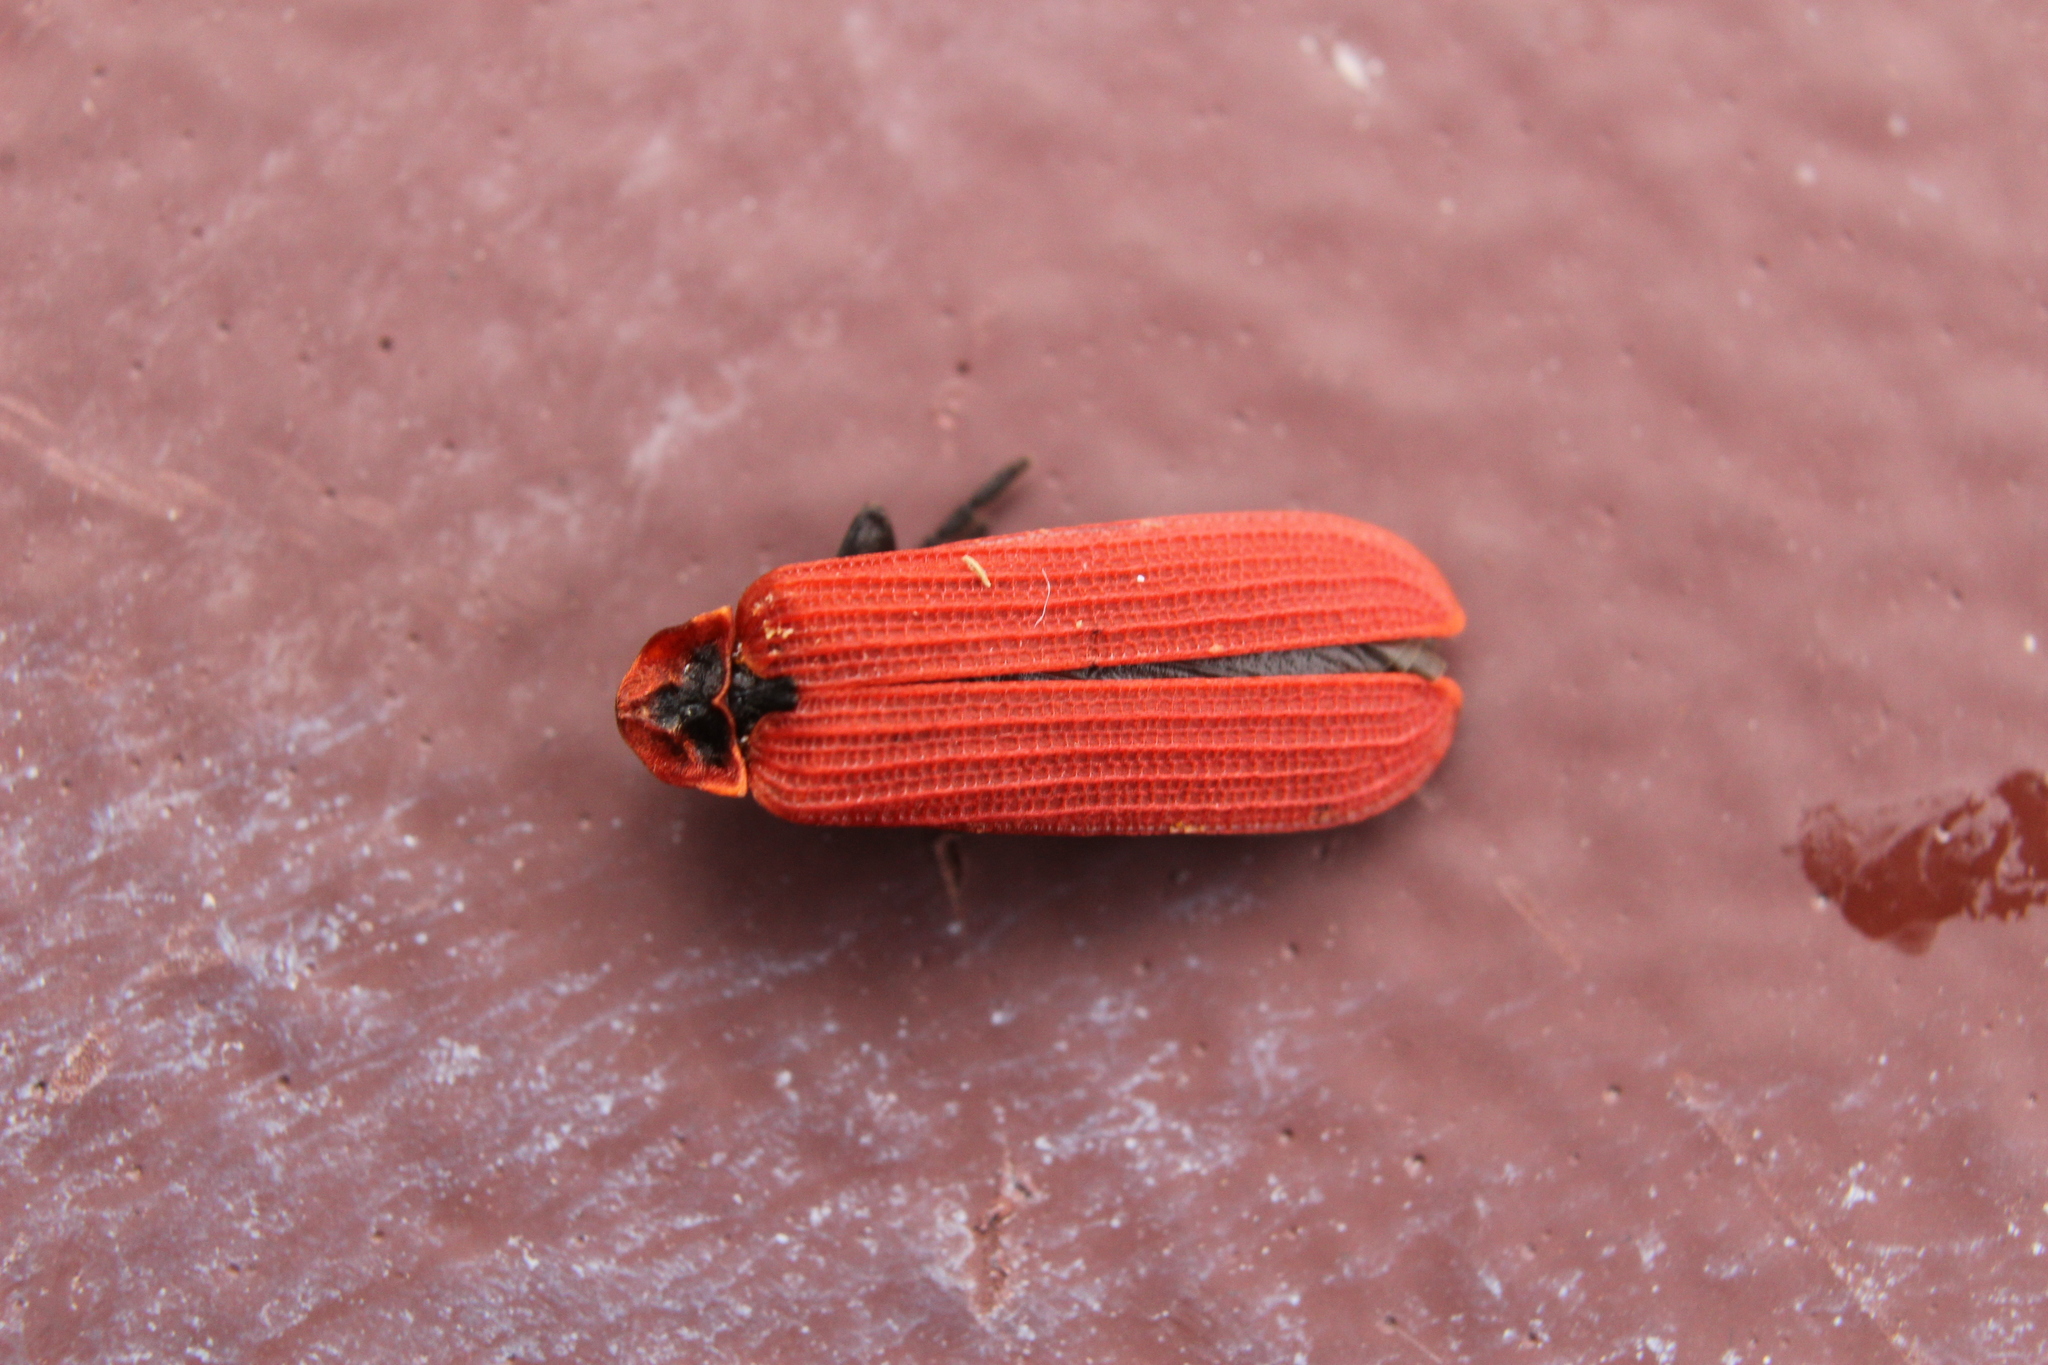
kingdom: Animalia
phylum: Arthropoda
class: Insecta
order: Coleoptera
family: Lycidae
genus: Dictyoptera
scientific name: Dictyoptera aurora
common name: Golden net-winged beetle
